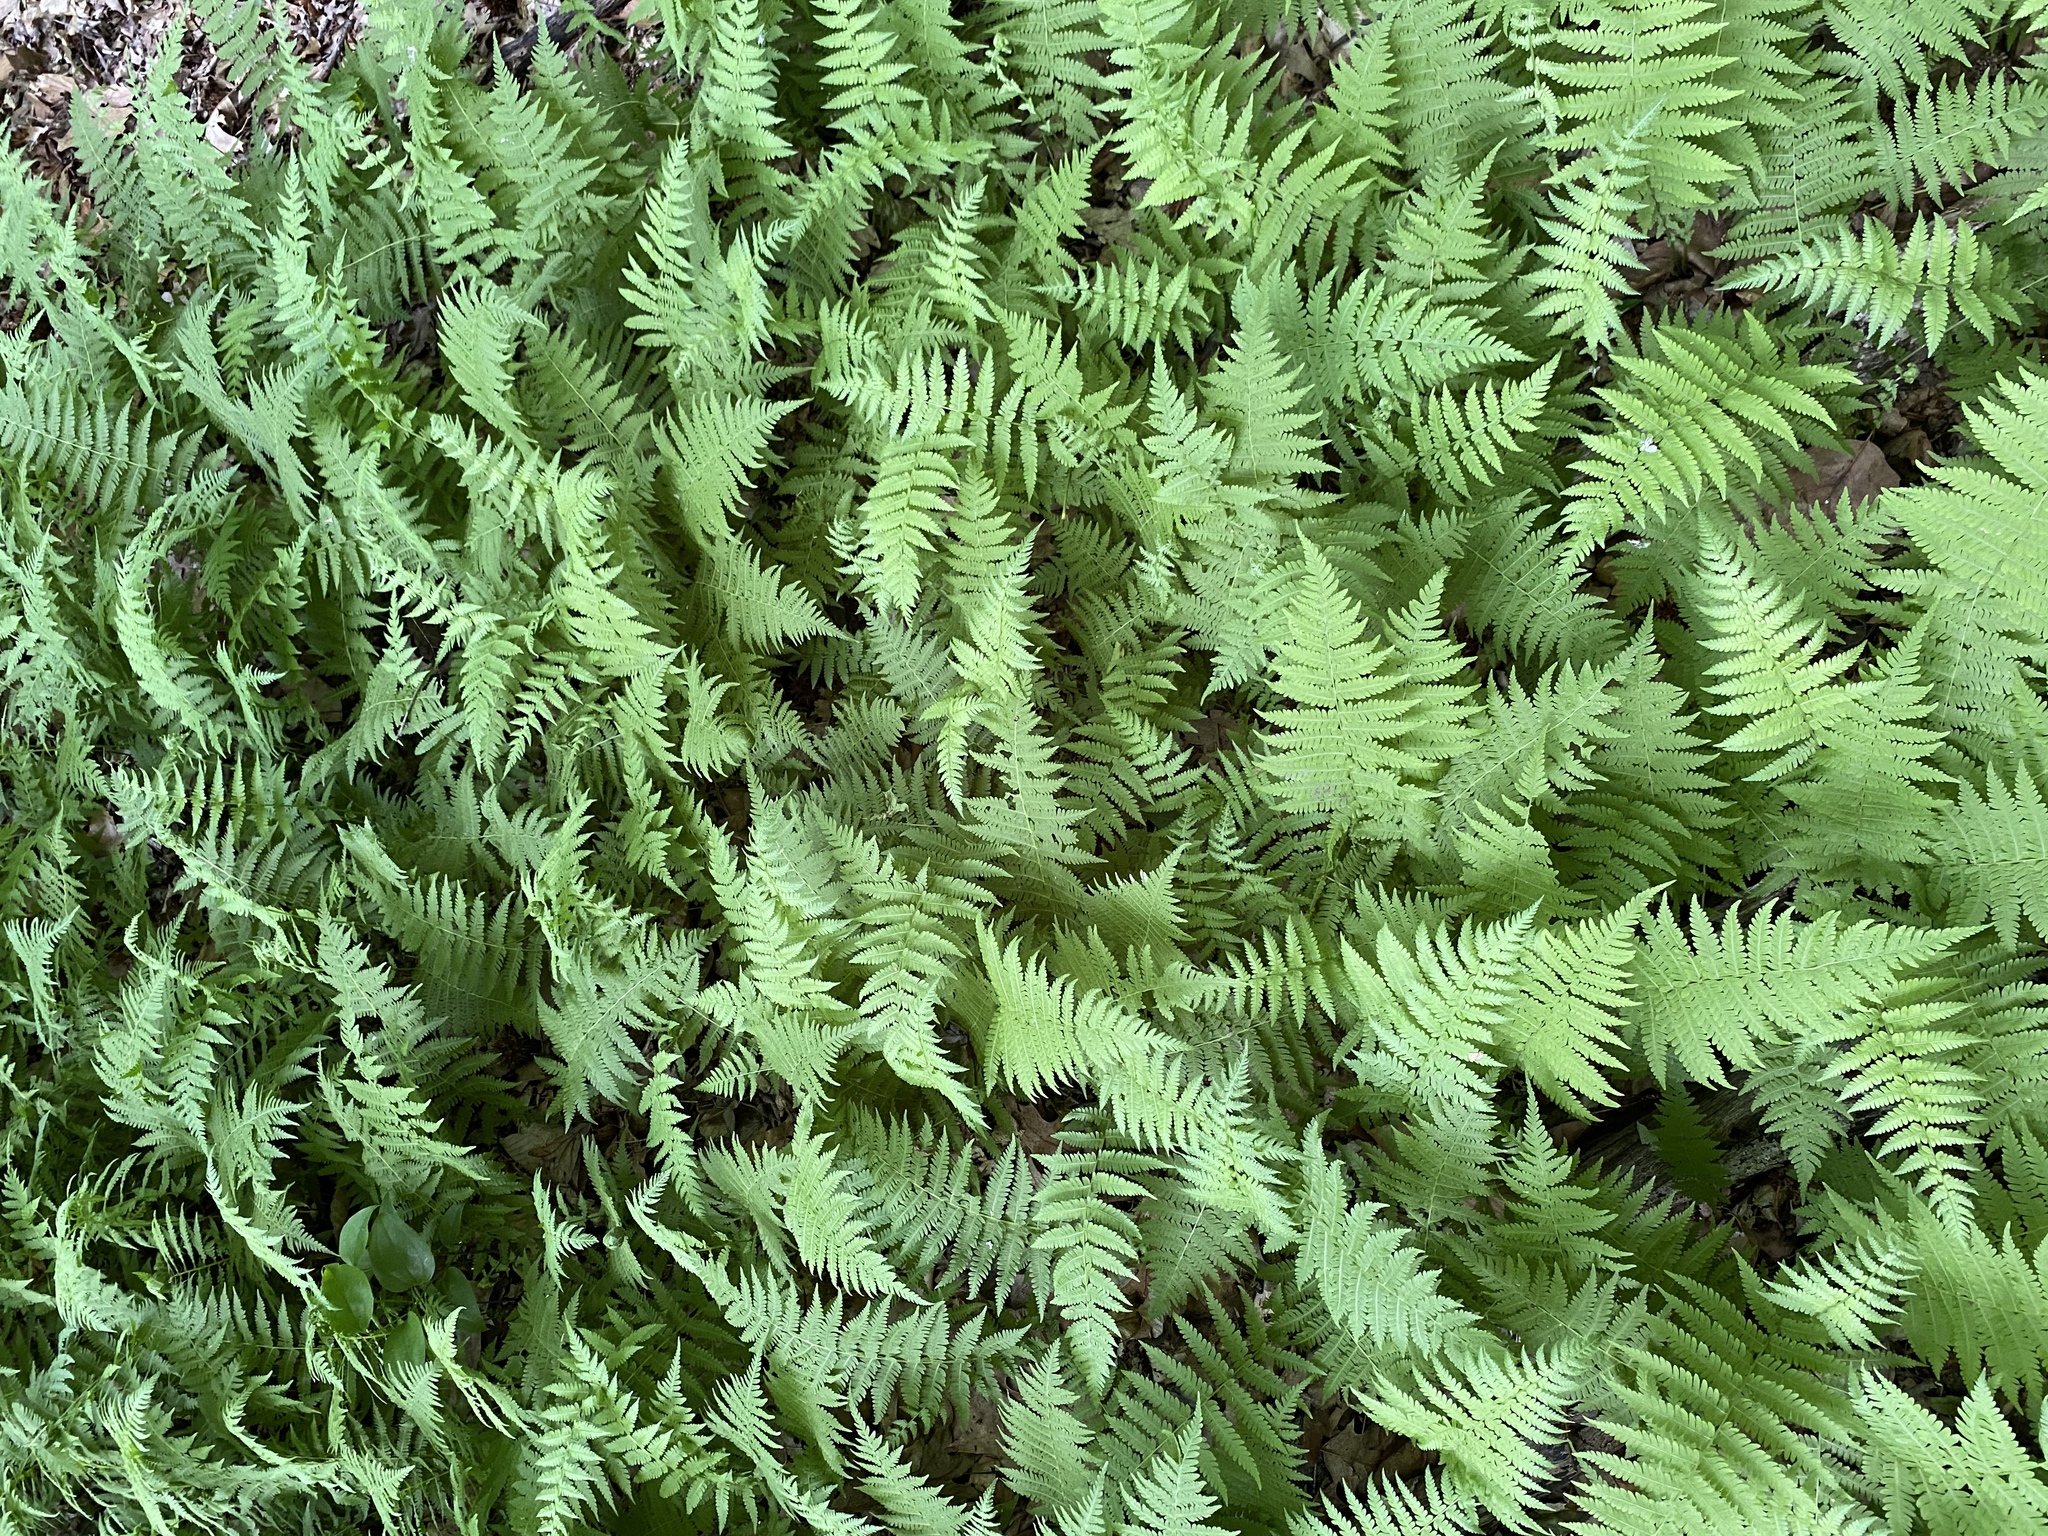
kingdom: Plantae
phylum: Tracheophyta
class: Polypodiopsida
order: Polypodiales
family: Thelypteridaceae
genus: Amauropelta
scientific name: Amauropelta noveboracensis
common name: New york fern
